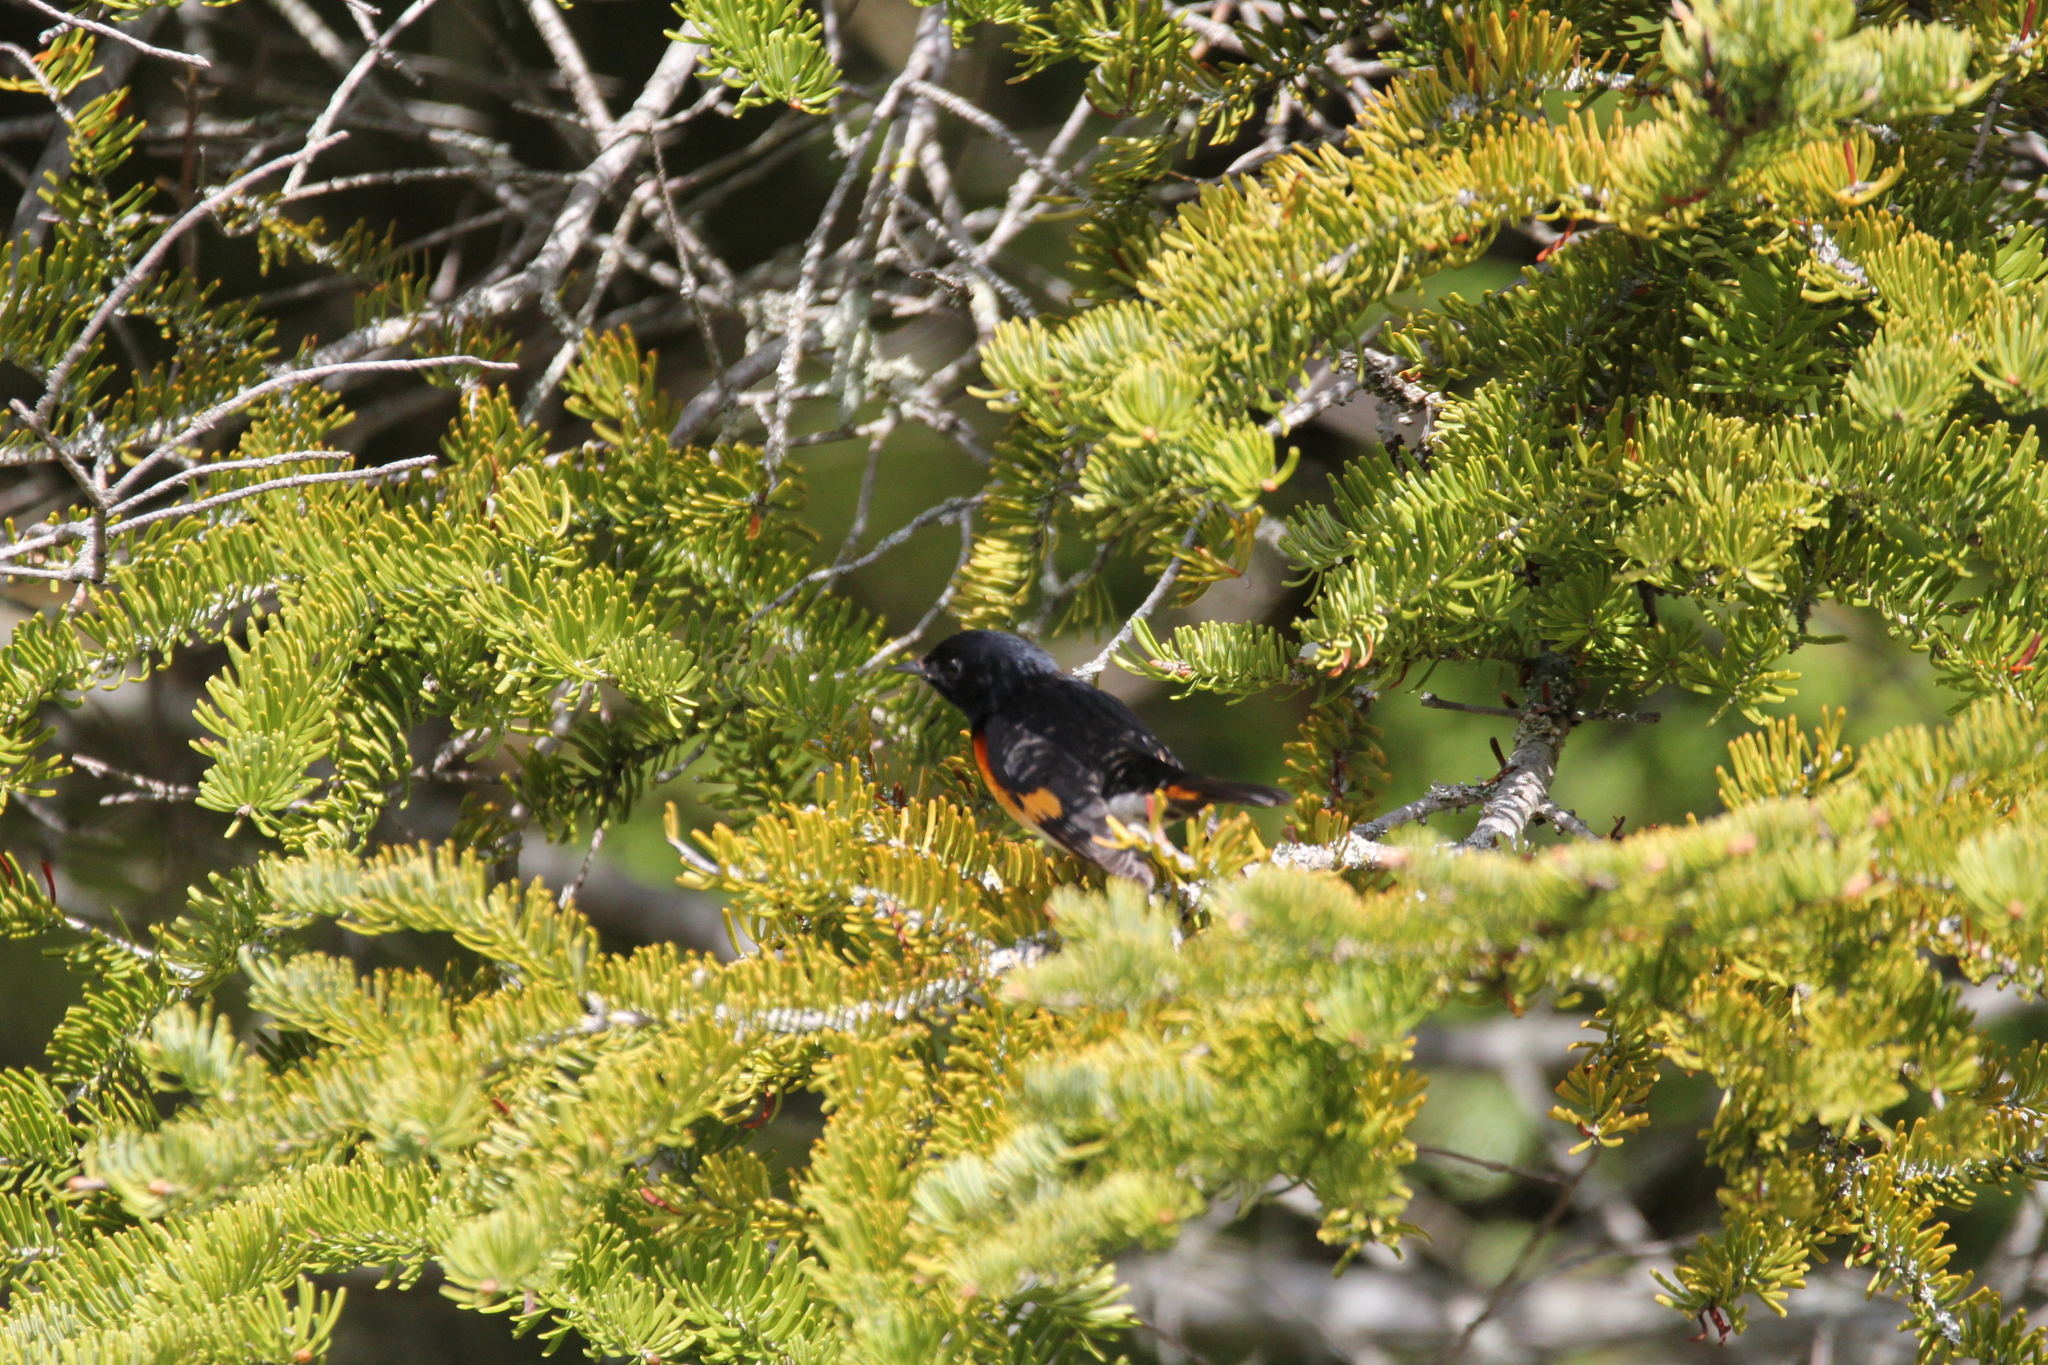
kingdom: Animalia
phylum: Chordata
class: Aves
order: Passeriformes
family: Parulidae
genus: Setophaga
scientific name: Setophaga ruticilla
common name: American redstart
